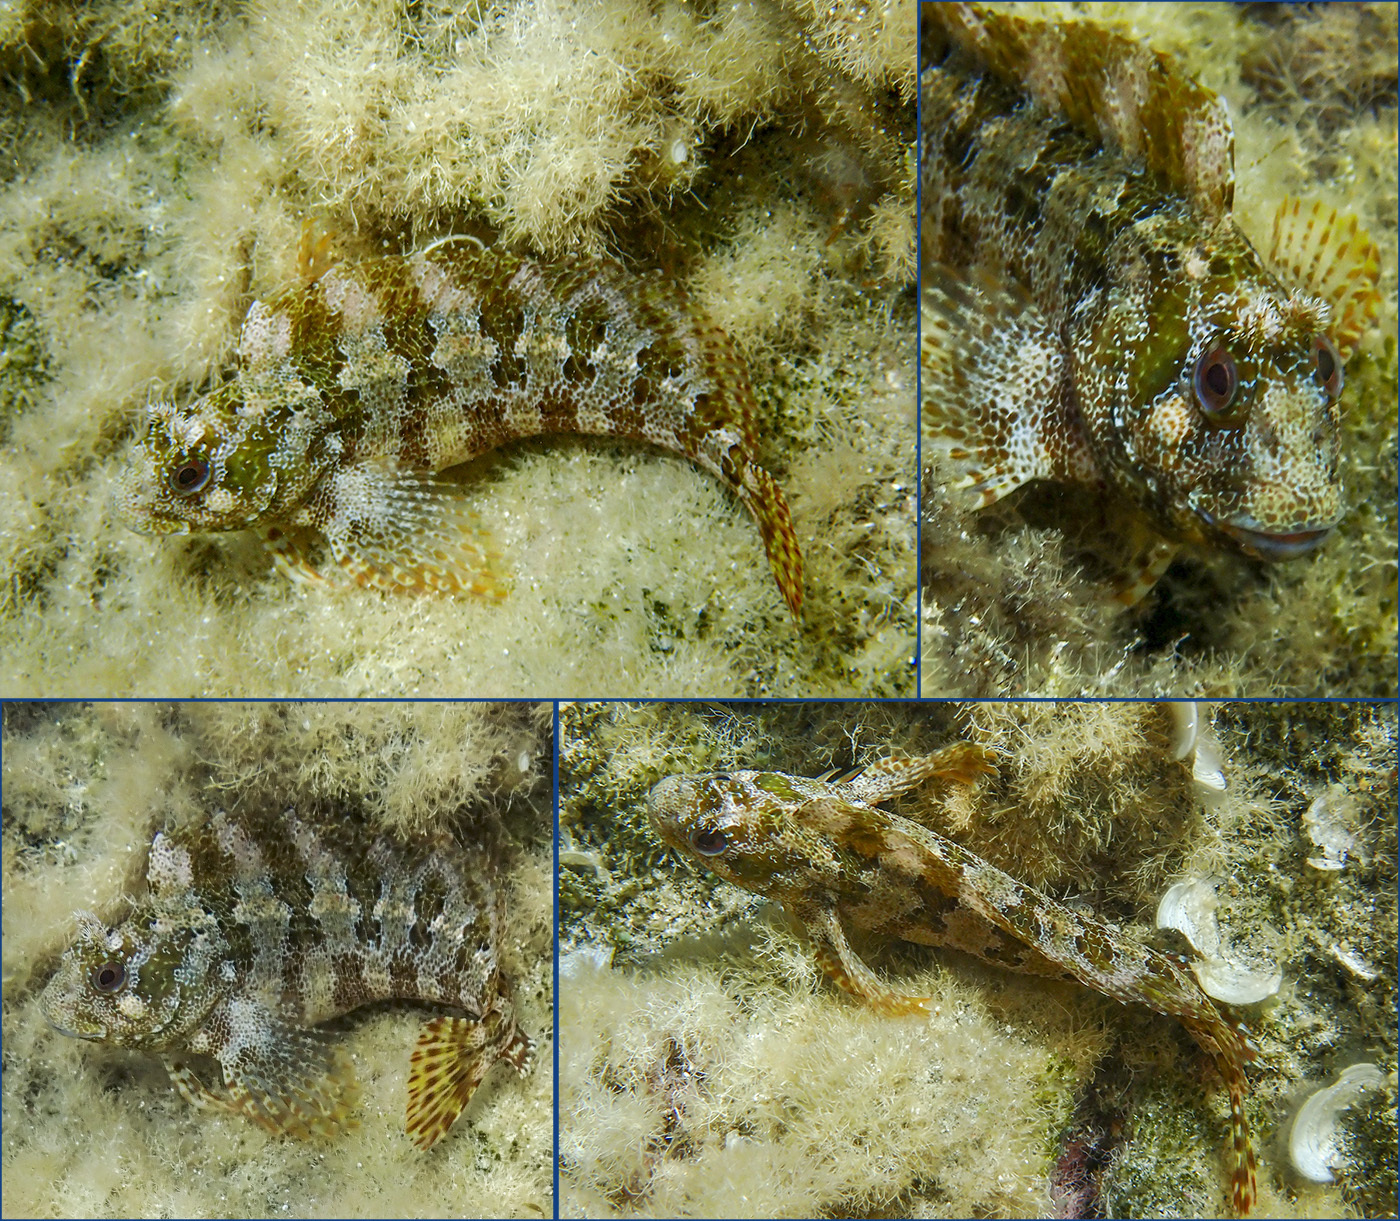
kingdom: Animalia
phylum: Chordata
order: Perciformes
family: Blenniidae
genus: Parablennius
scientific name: Parablennius gattorugine
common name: Tompot blenny
